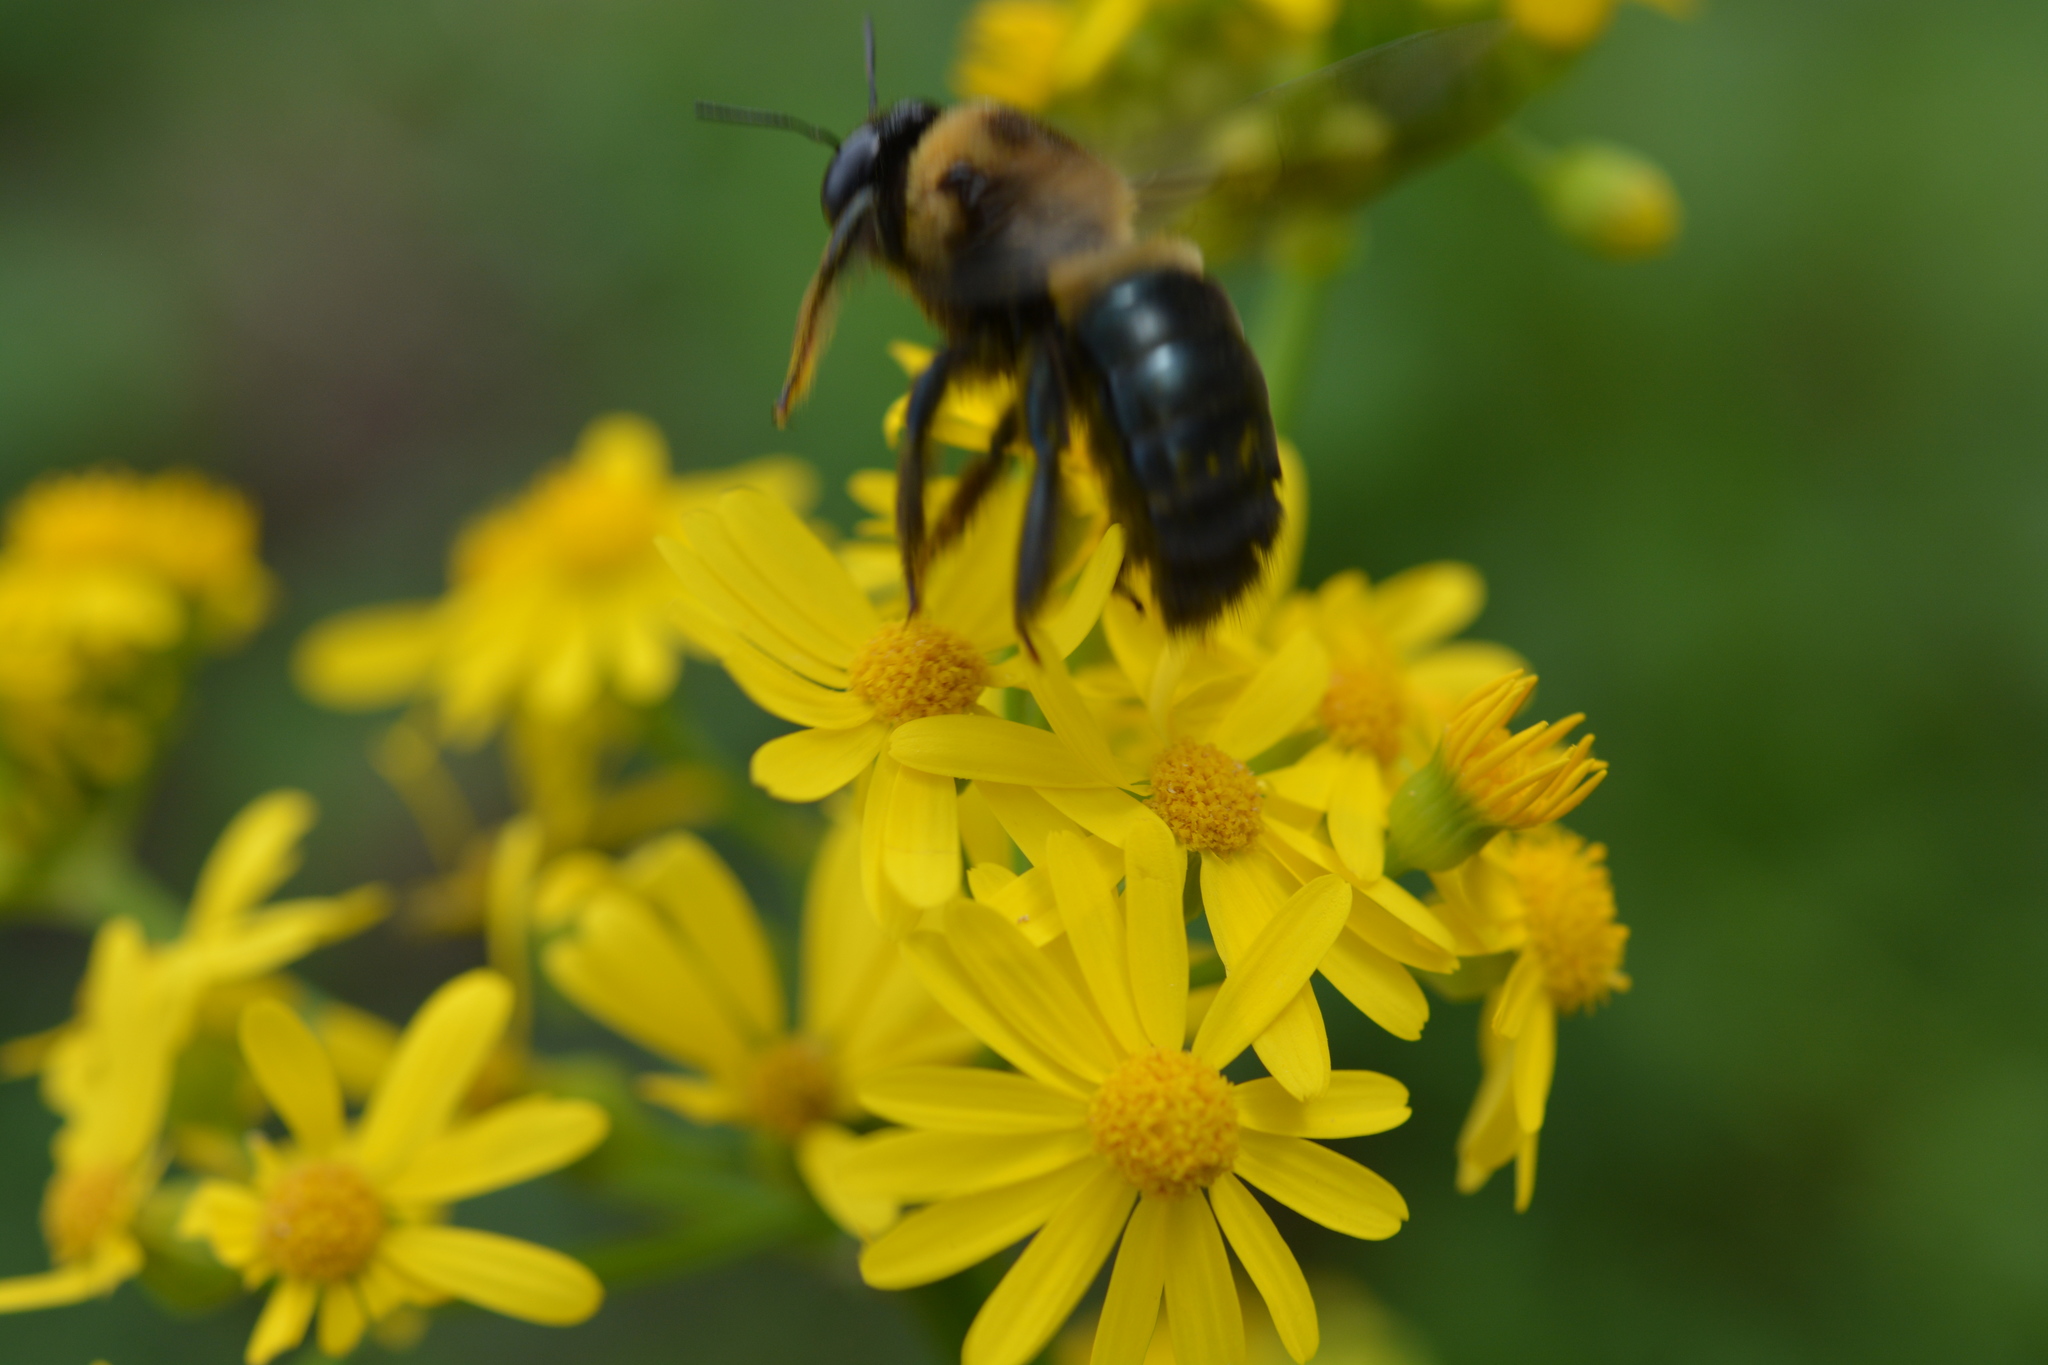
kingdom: Animalia
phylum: Arthropoda
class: Insecta
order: Hymenoptera
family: Apidae
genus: Xylocopa
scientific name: Xylocopa virginica
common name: Carpenter bee
